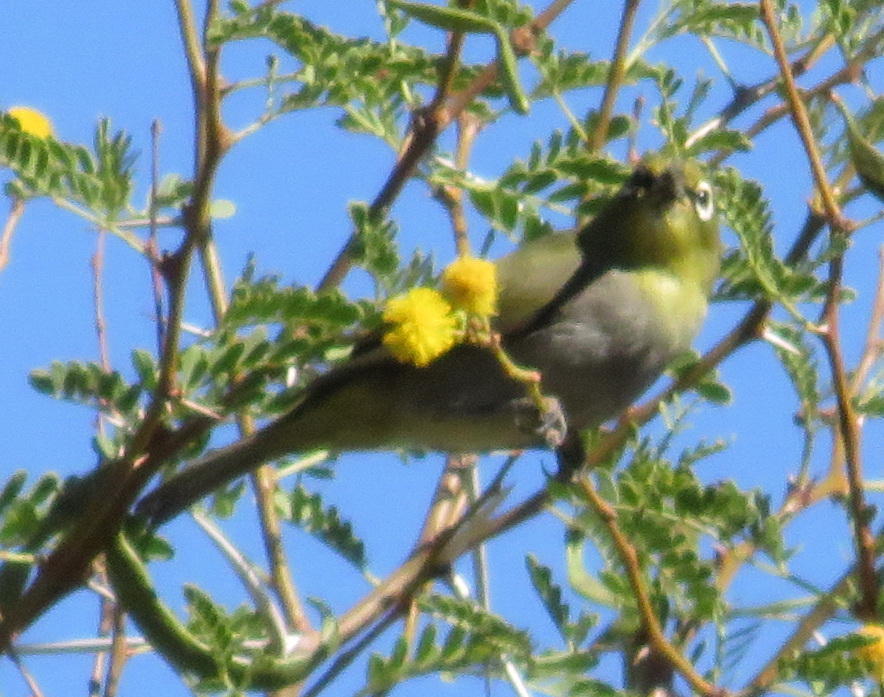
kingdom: Animalia
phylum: Chordata
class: Aves
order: Passeriformes
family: Zosteropidae
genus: Zosterops
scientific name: Zosterops virens
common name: Cape white-eye
